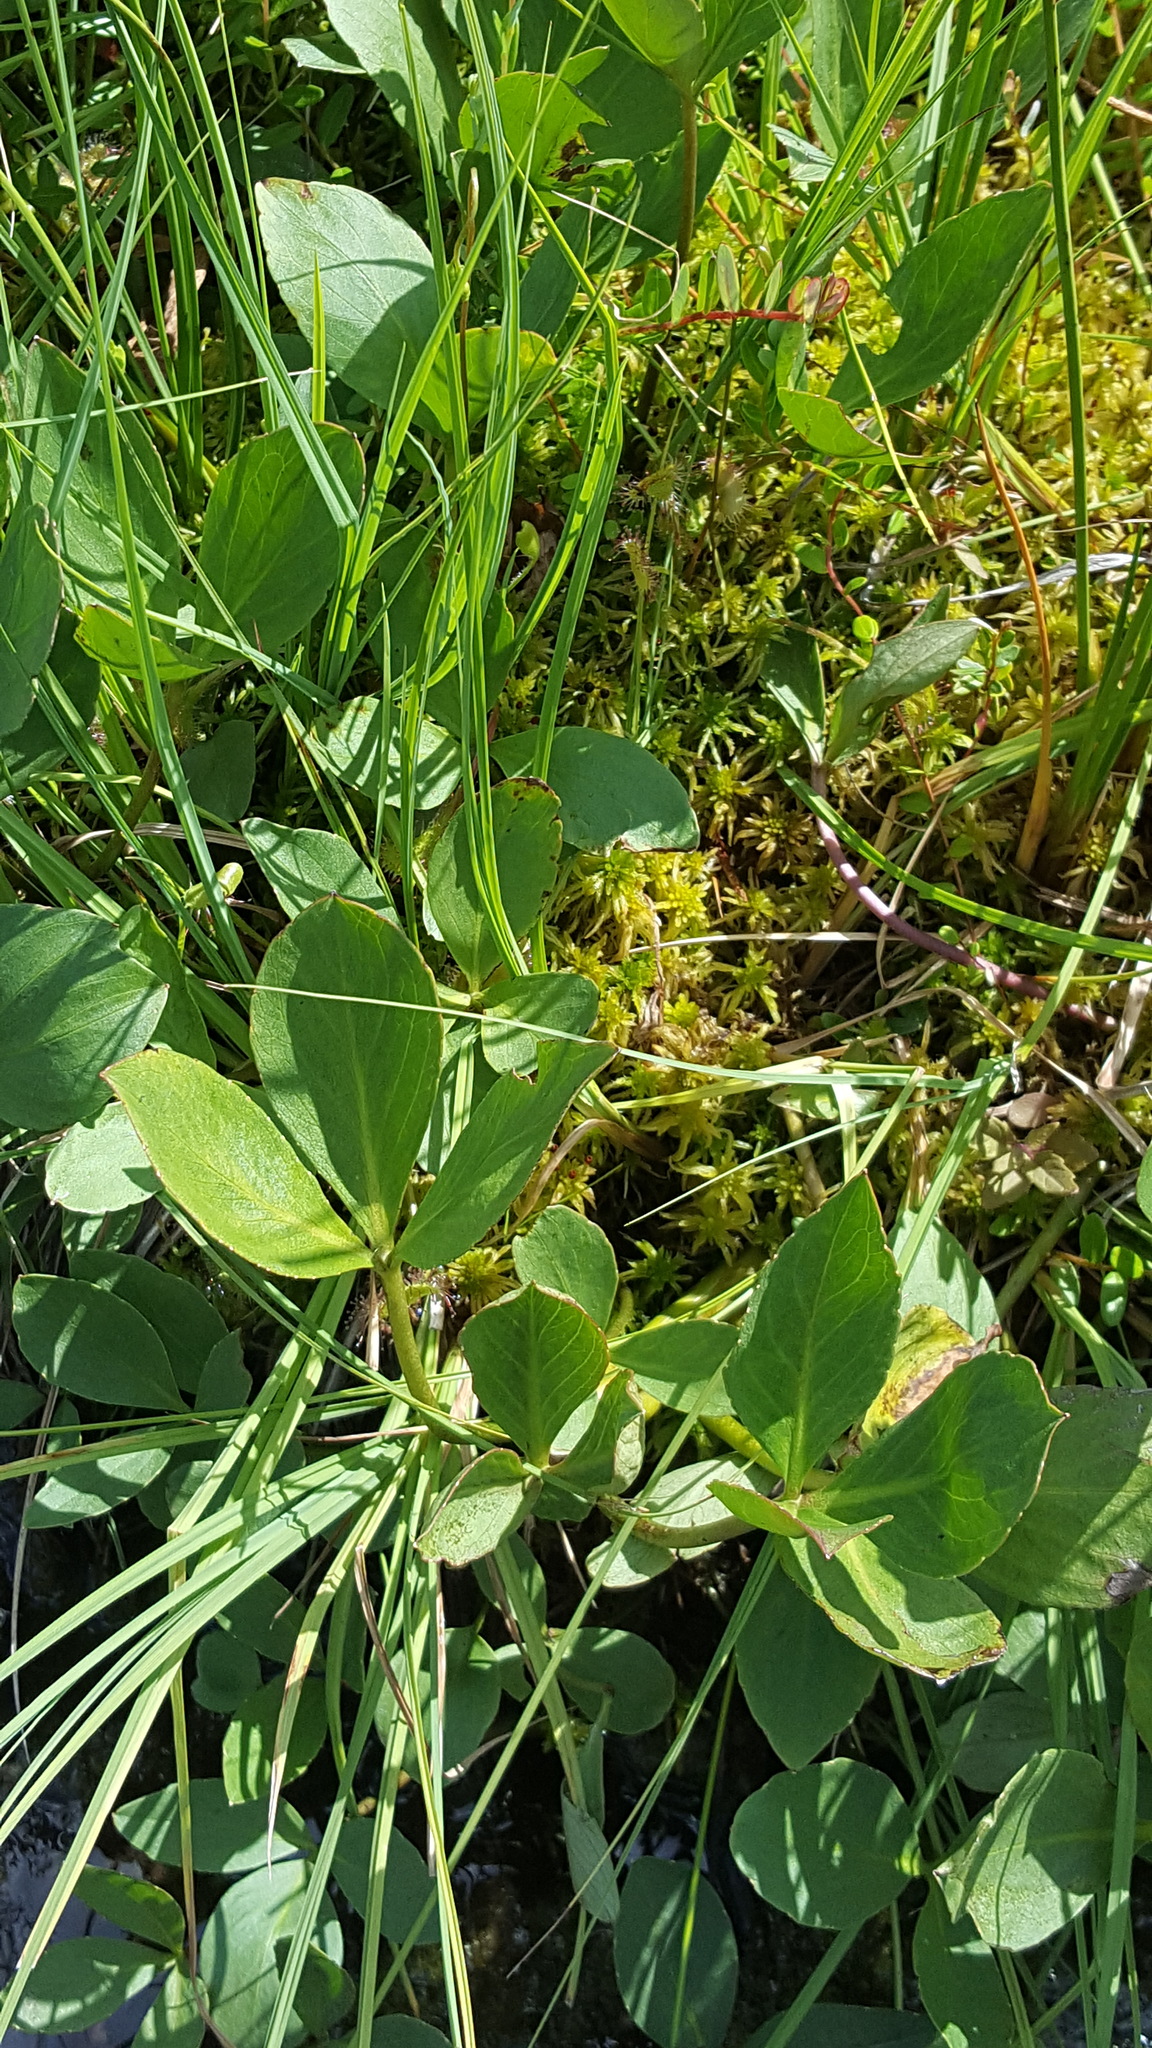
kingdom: Plantae
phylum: Tracheophyta
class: Magnoliopsida
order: Asterales
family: Menyanthaceae
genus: Menyanthes
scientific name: Menyanthes trifoliata
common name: Bogbean
